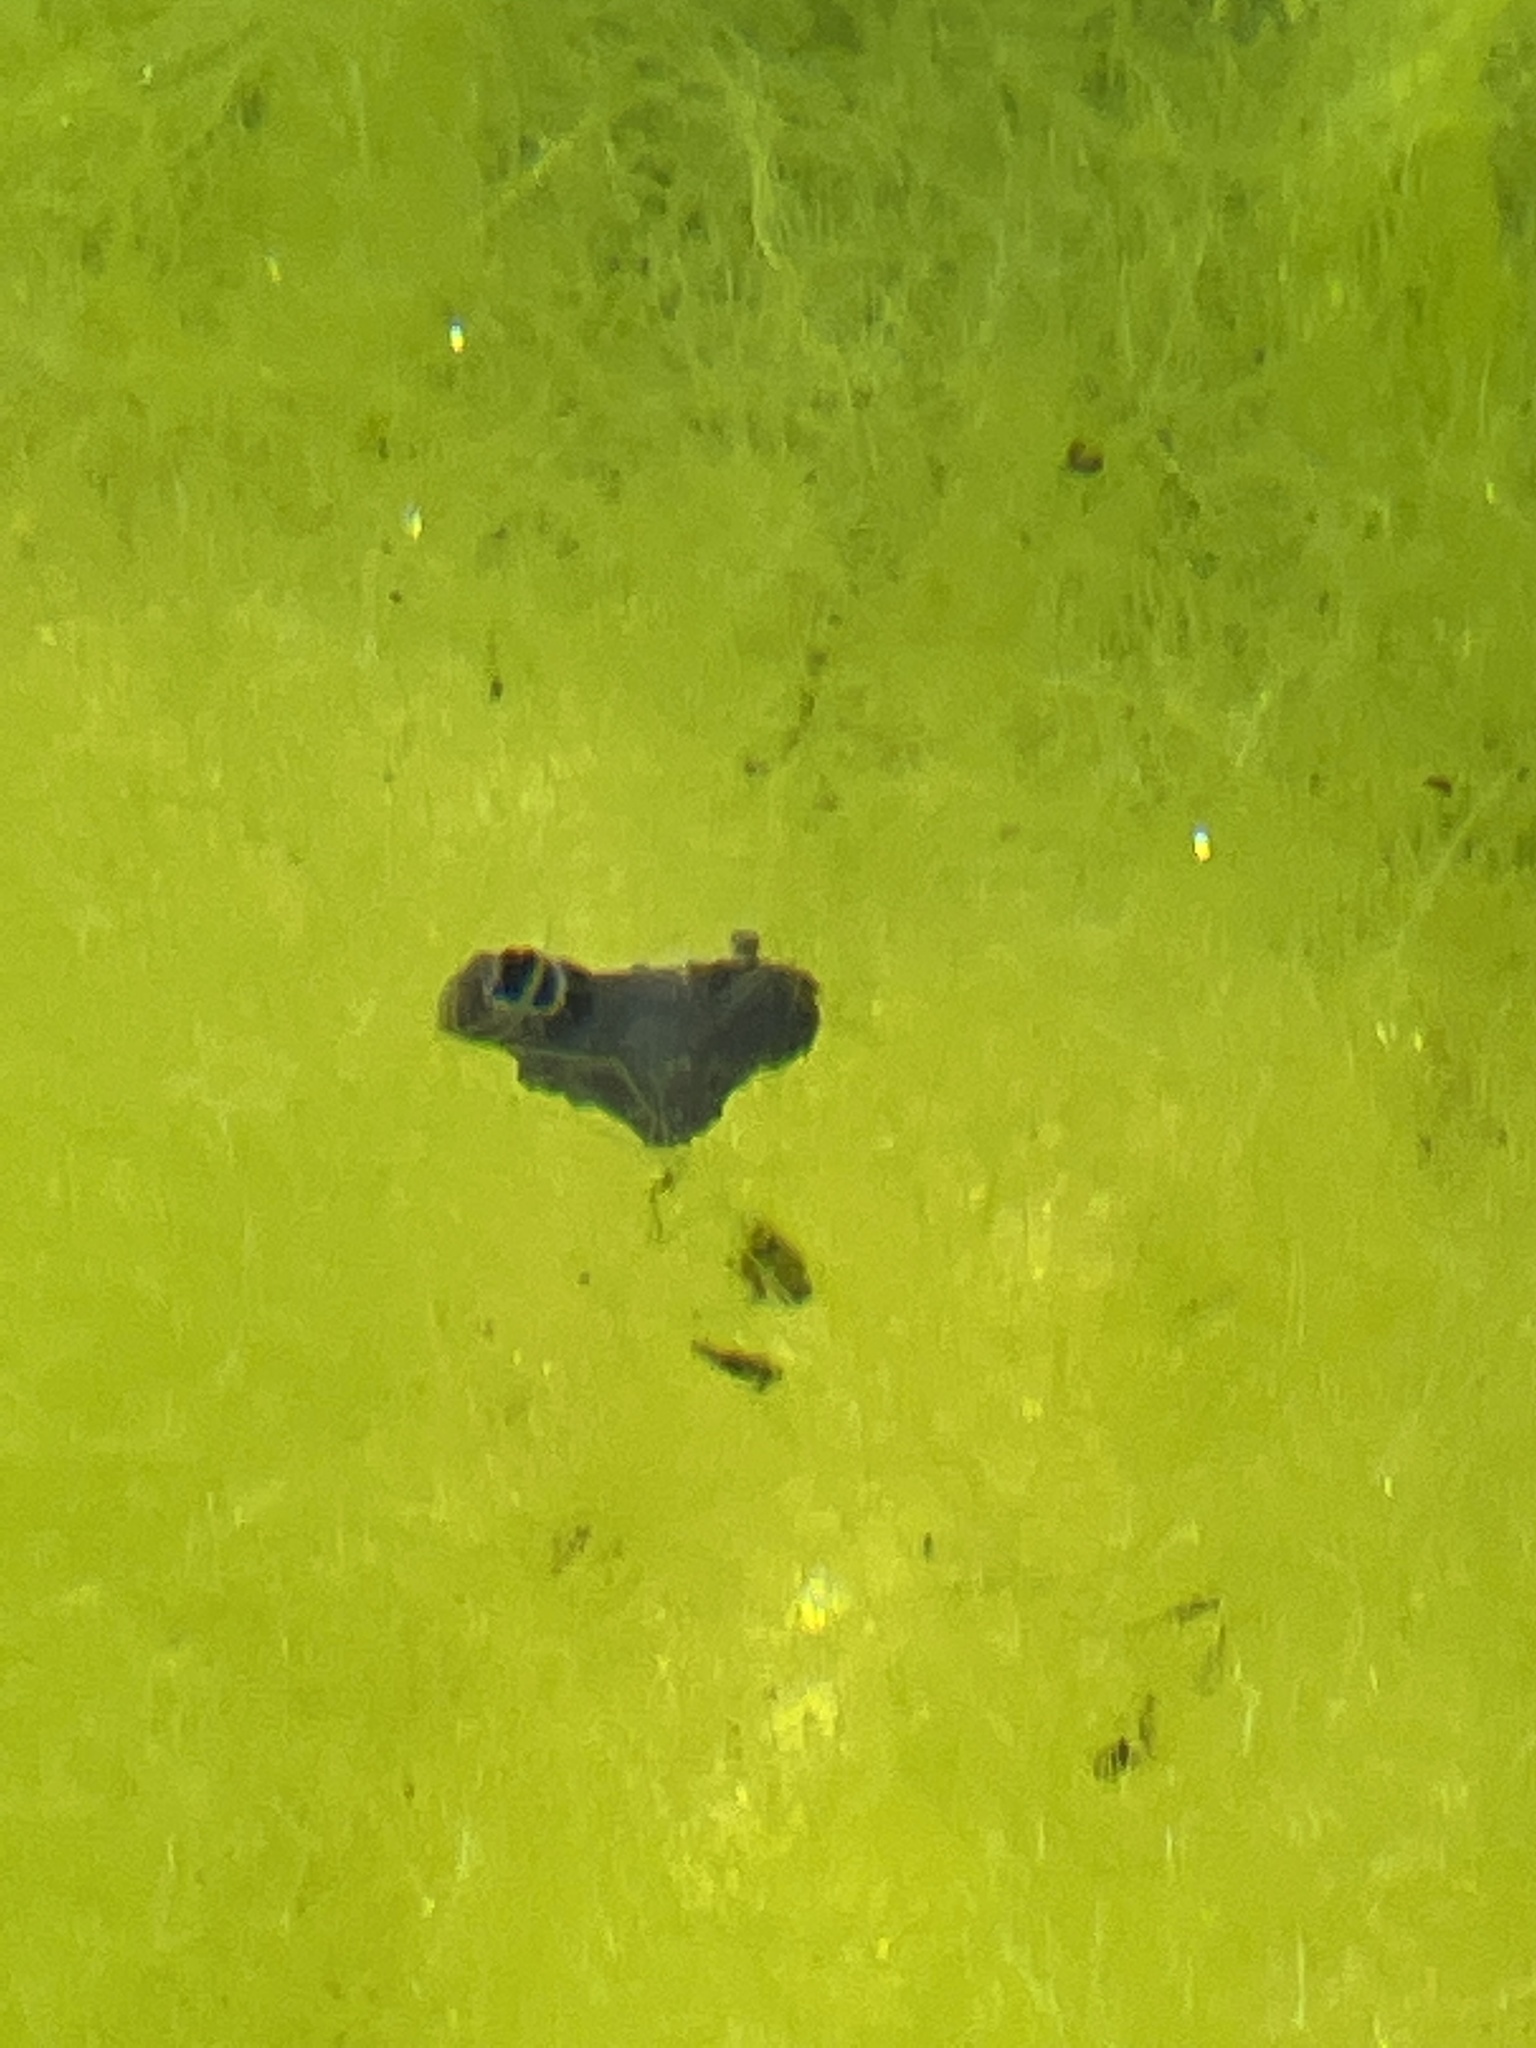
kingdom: Animalia
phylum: Mollusca
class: Gastropoda
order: Nudibranchia
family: Discodorididae
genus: Jorunna
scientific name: Jorunna ramicola
